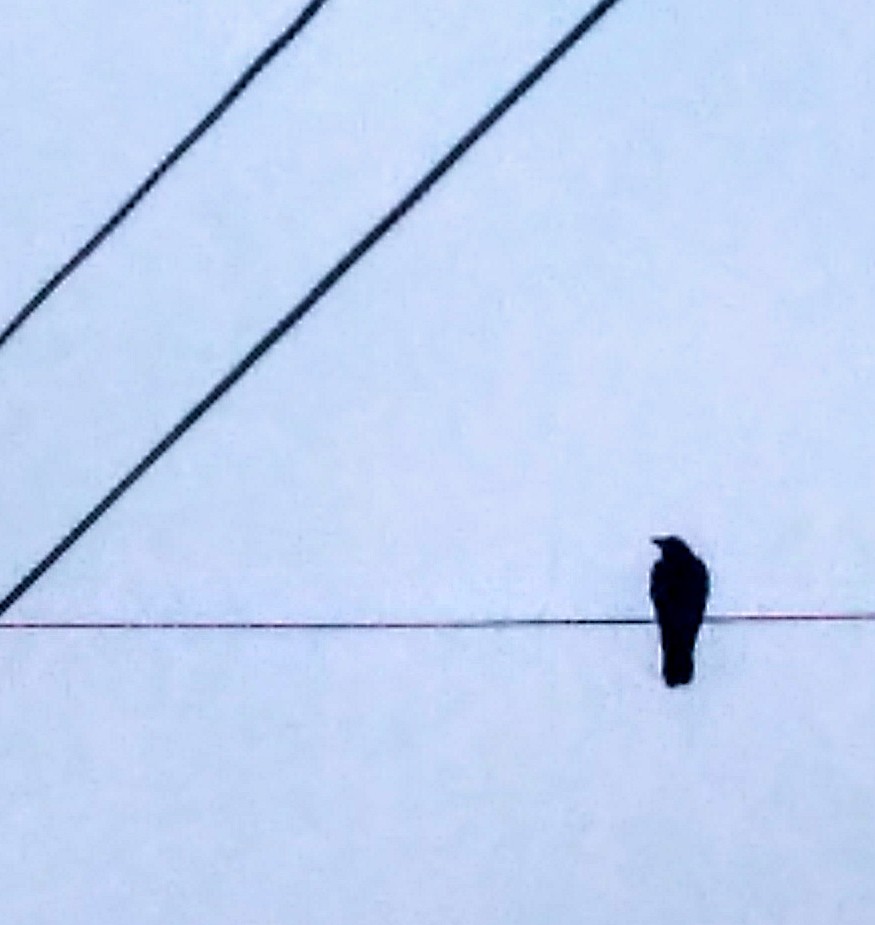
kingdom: Animalia
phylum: Chordata
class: Aves
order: Passeriformes
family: Corvidae
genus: Corvus
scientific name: Corvus brachyrhynchos
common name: American crow
